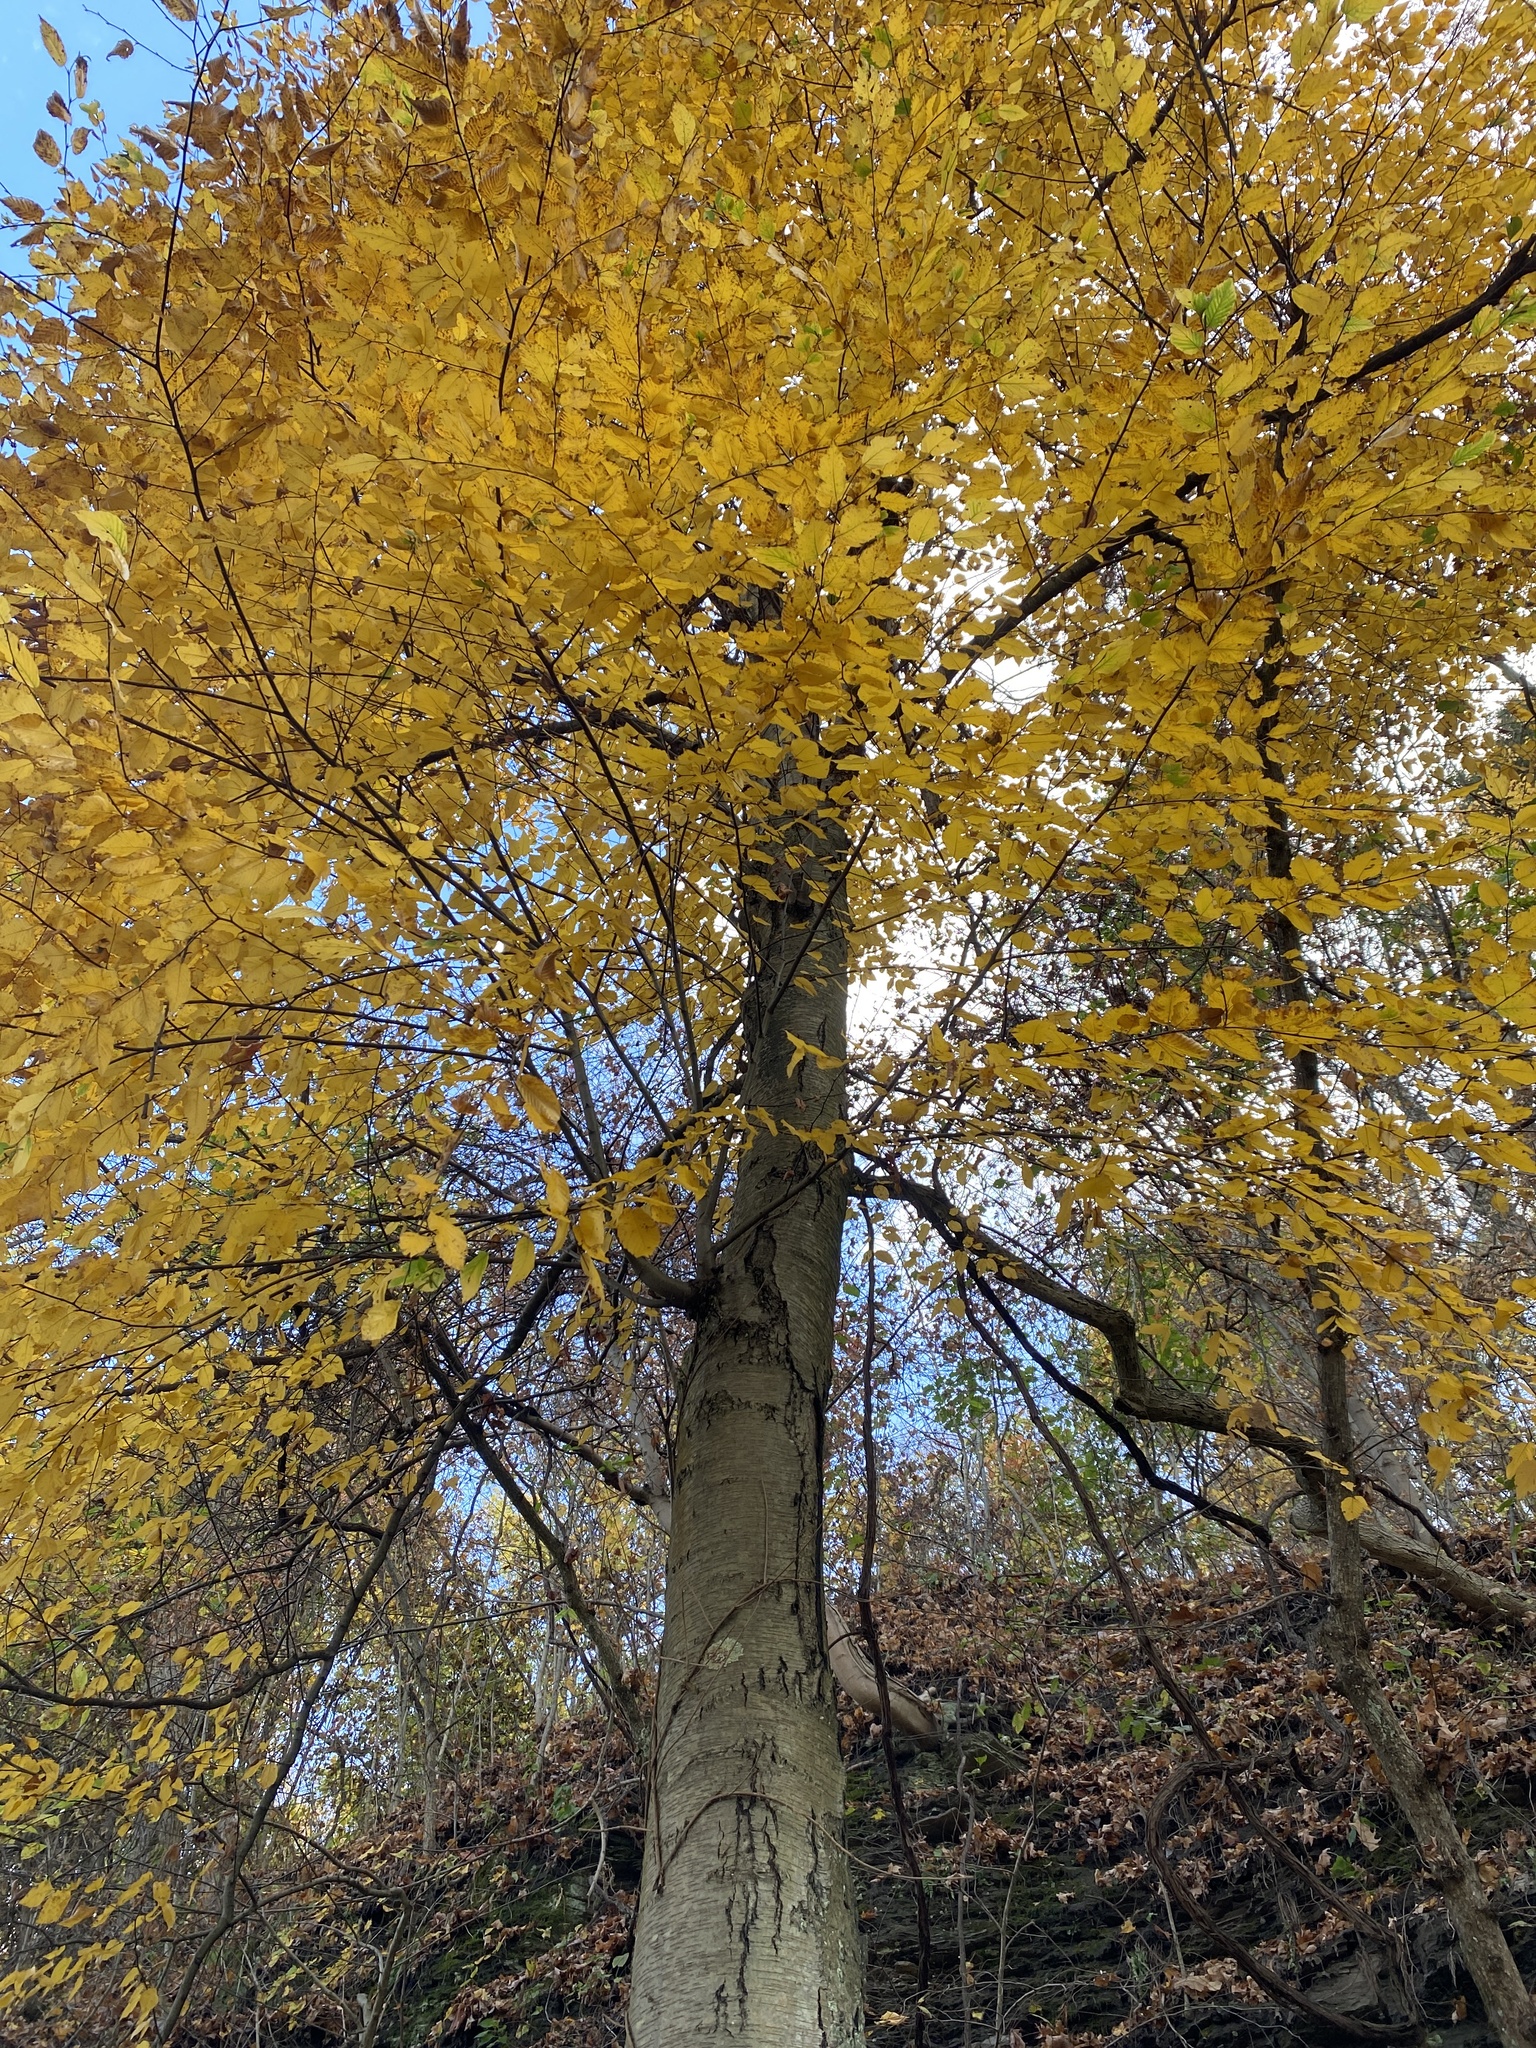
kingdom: Plantae
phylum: Tracheophyta
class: Magnoliopsida
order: Fagales
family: Betulaceae
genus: Betula
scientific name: Betula lenta
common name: Black birch
